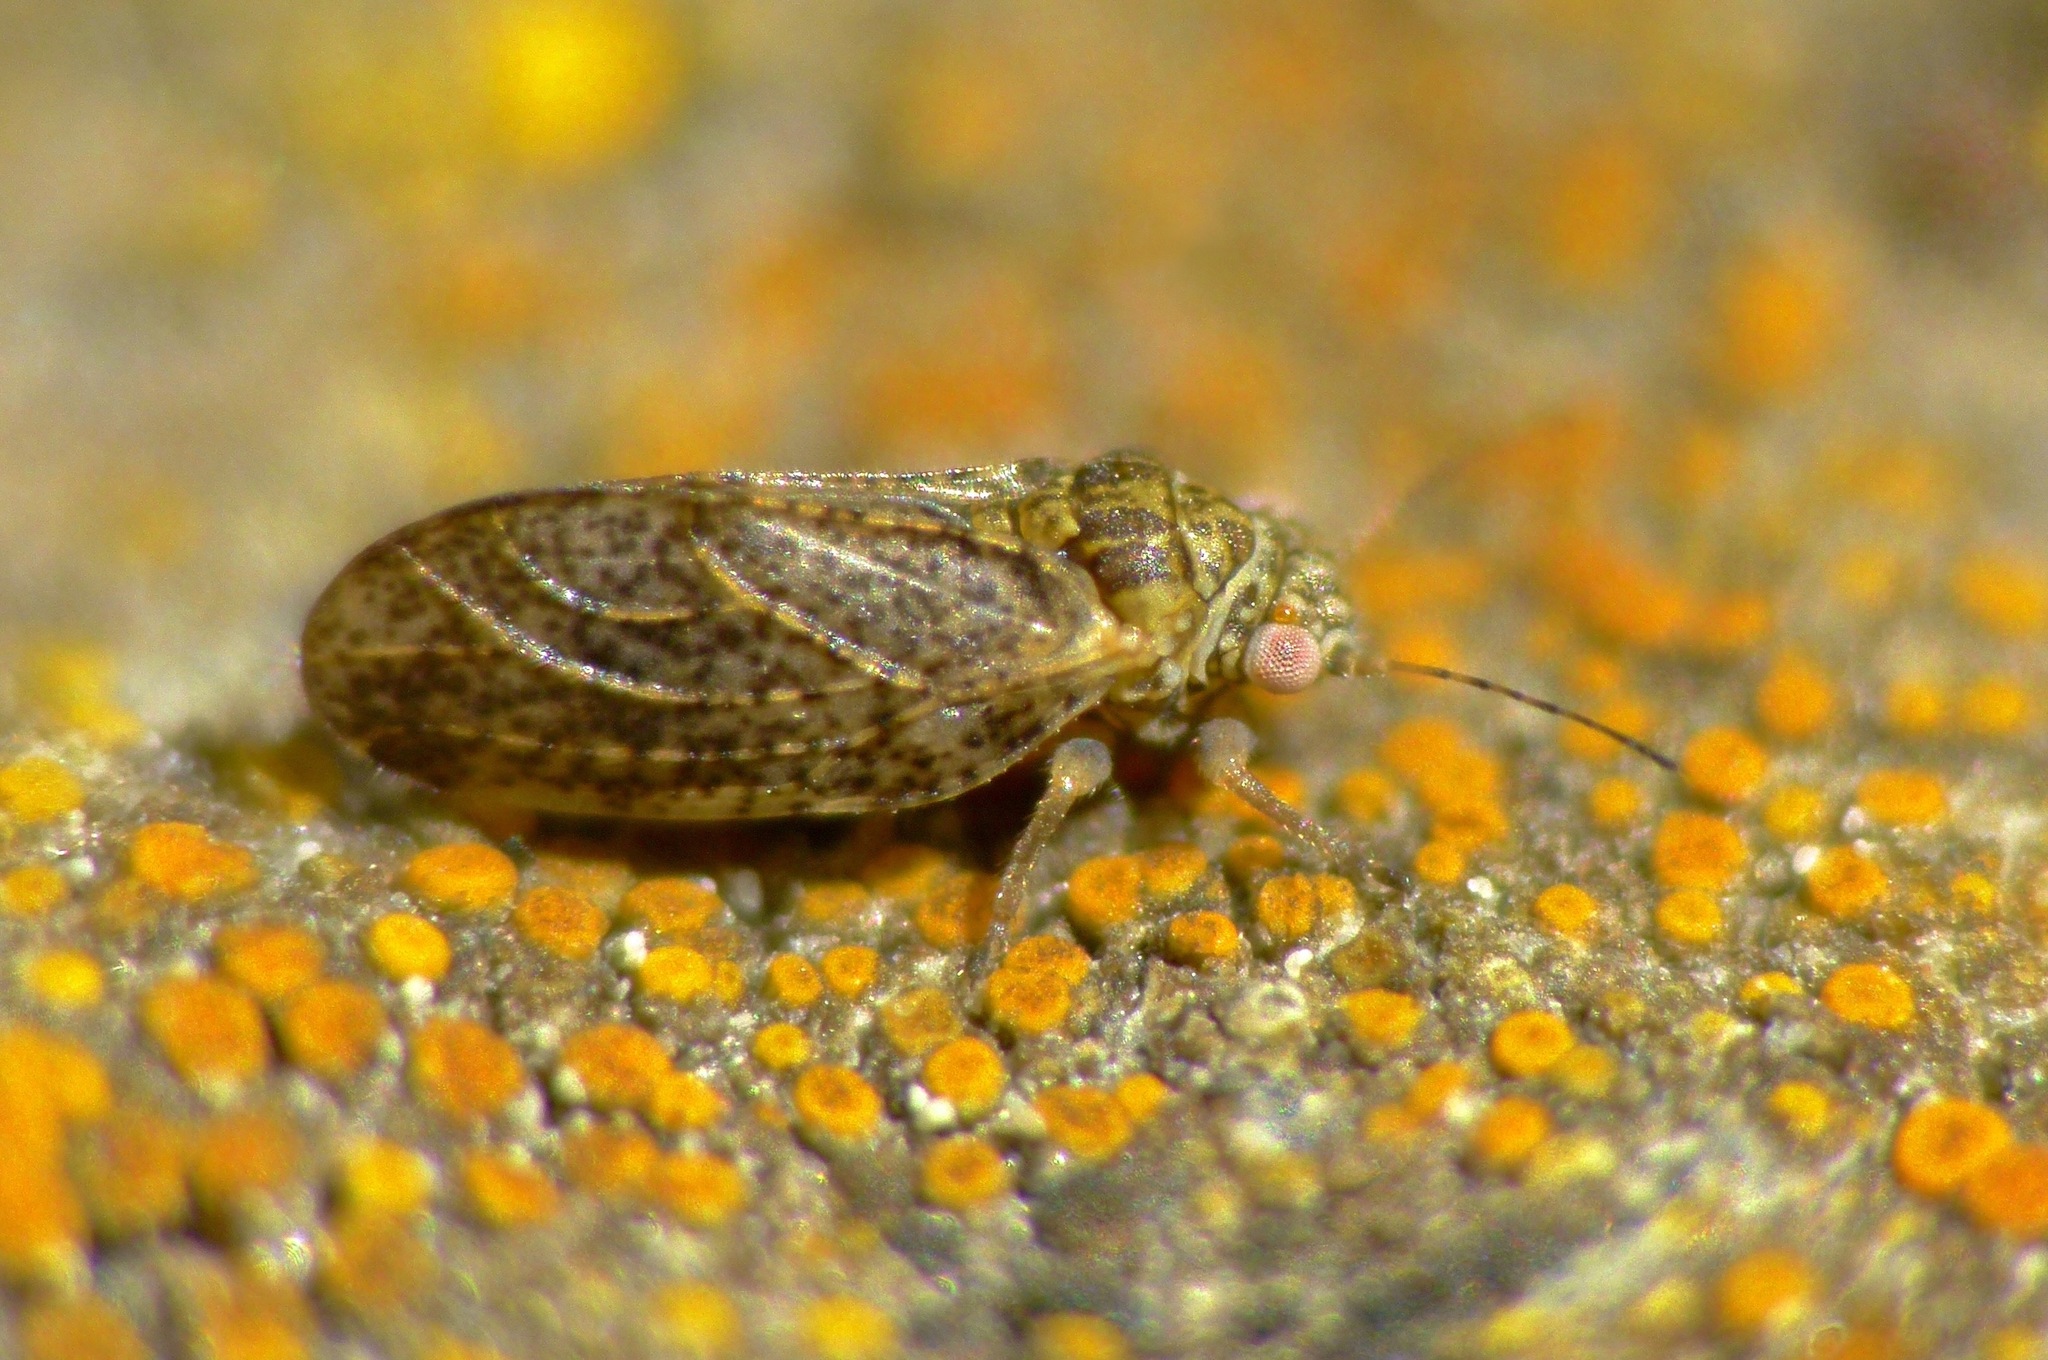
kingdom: Animalia
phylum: Arthropoda
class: Insecta
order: Hemiptera
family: Psyllidae
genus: Psylla
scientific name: Psylla frodobagginsi
